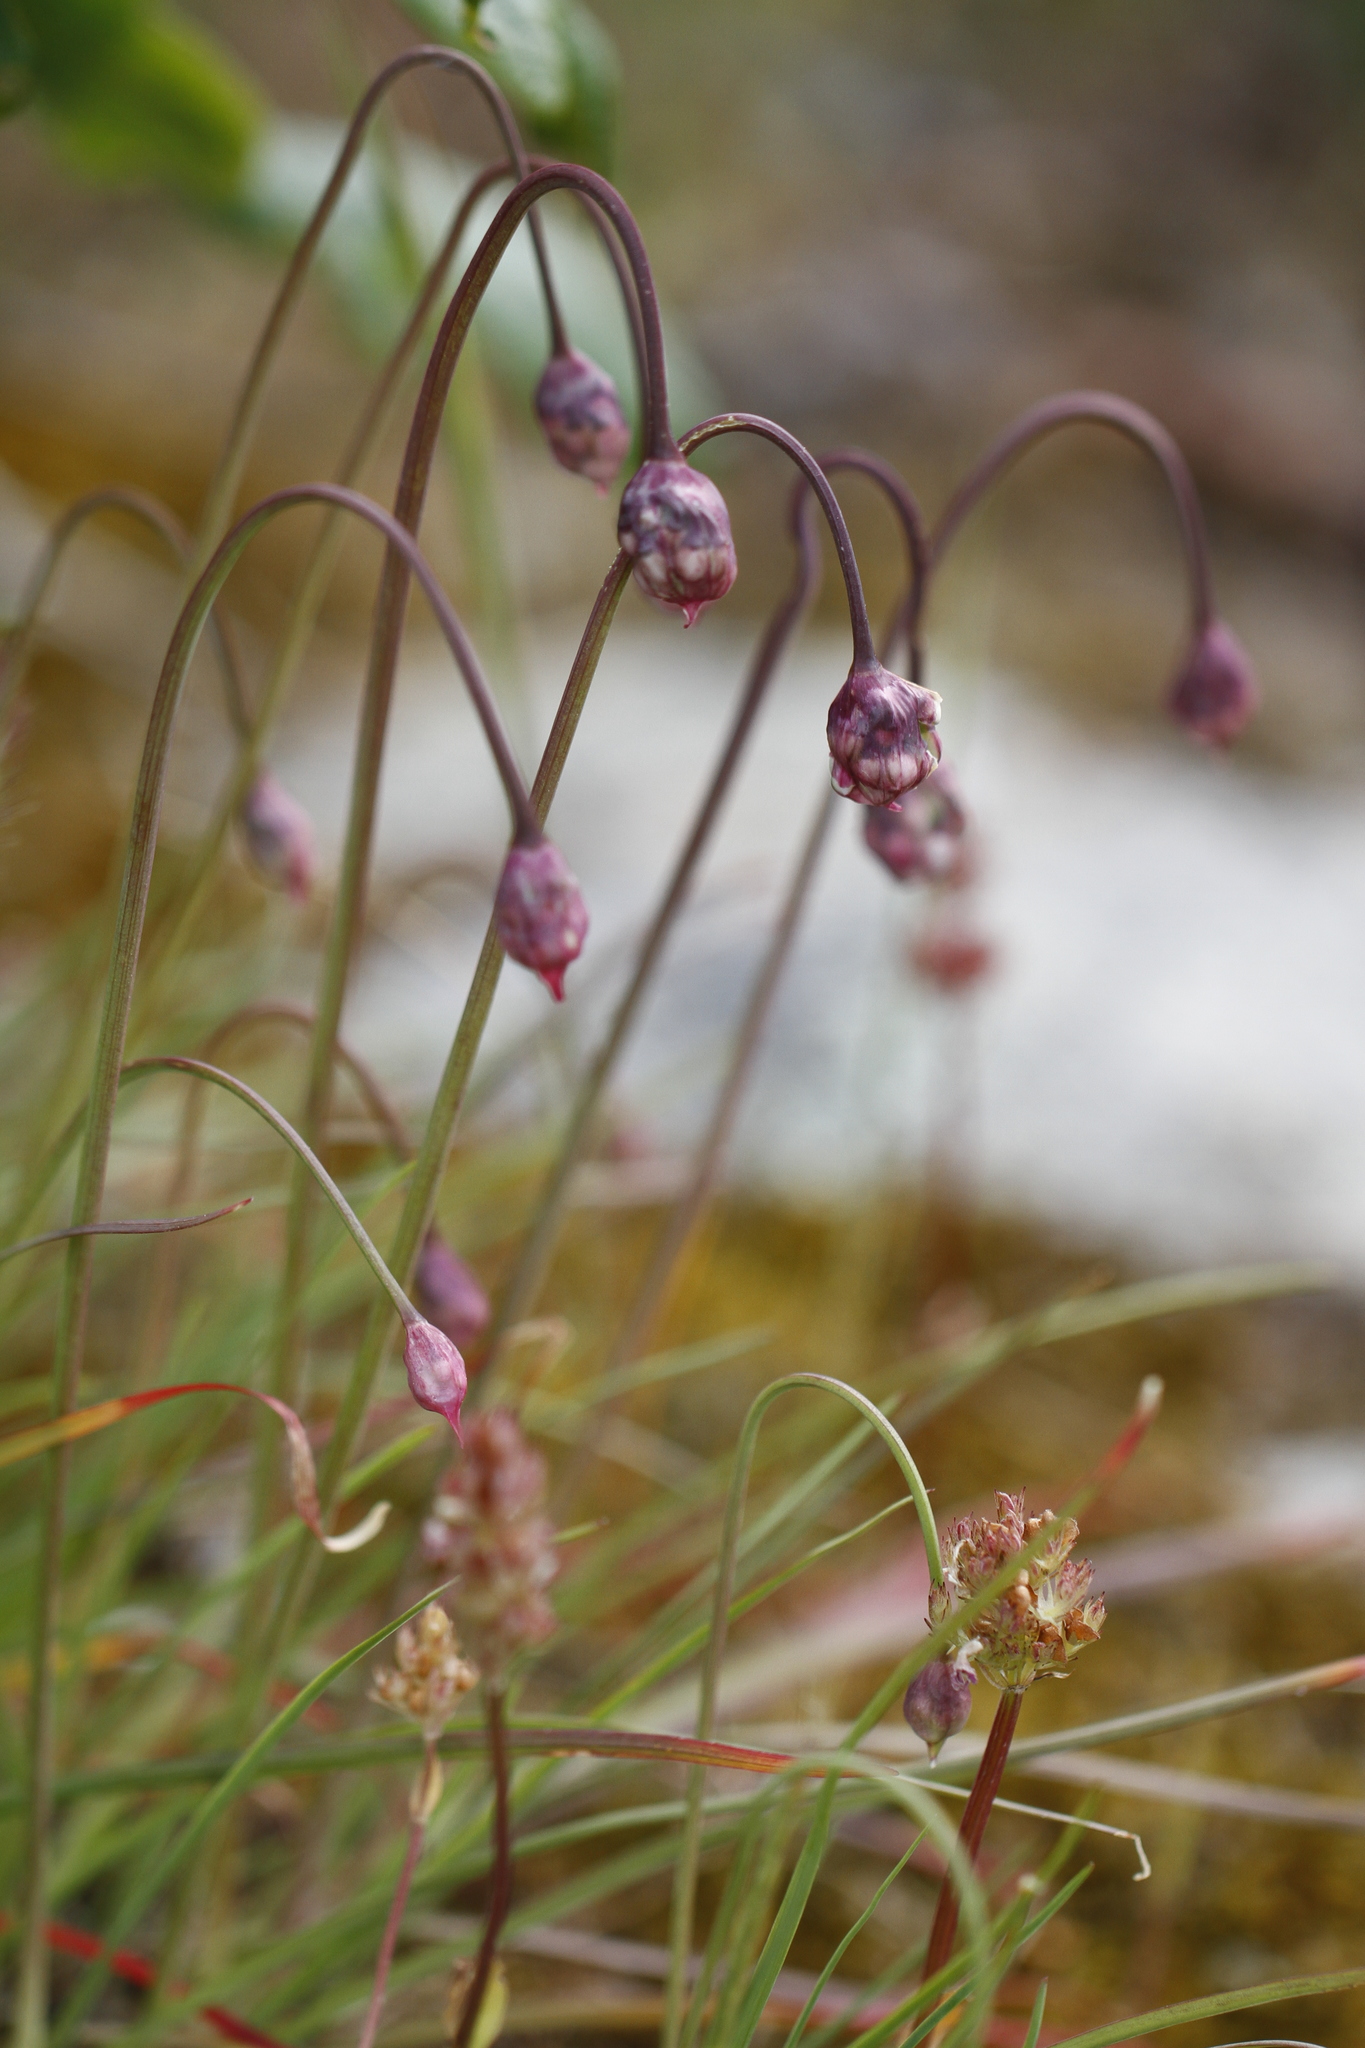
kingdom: Plantae
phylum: Tracheophyta
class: Liliopsida
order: Asparagales
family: Amaryllidaceae
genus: Allium
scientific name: Allium cernuum
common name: Nodding onion
